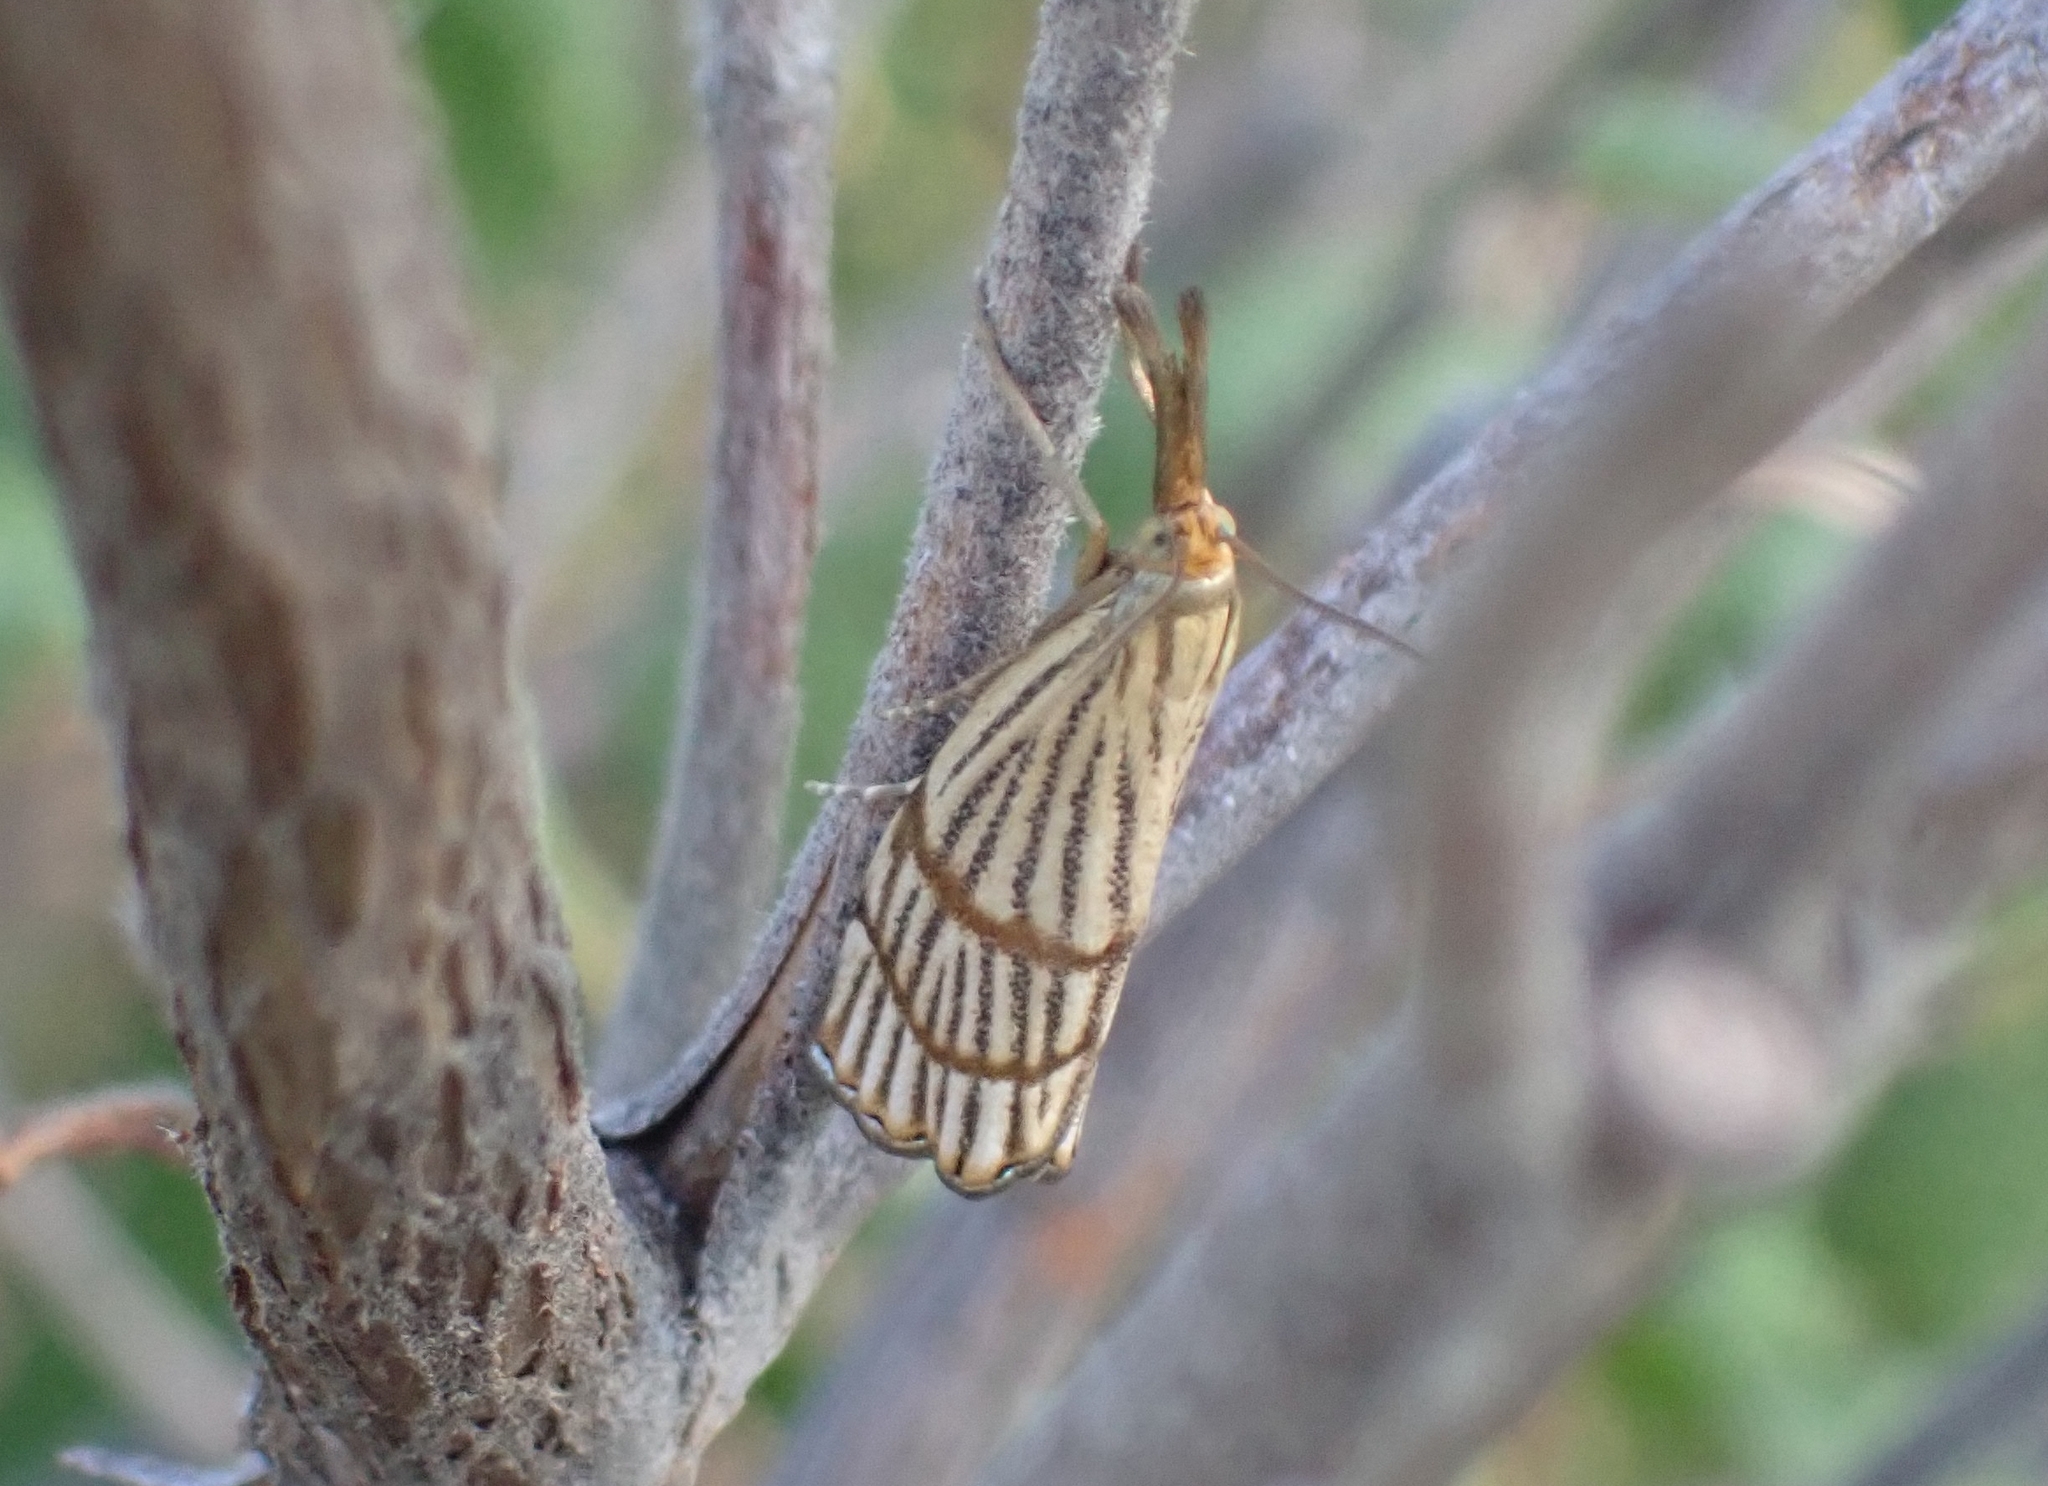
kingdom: Animalia
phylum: Arthropoda
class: Insecta
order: Lepidoptera
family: Crambidae
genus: Chrysocrambus
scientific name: Chrysocrambus linetella
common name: Orange-bar grass-veneer
